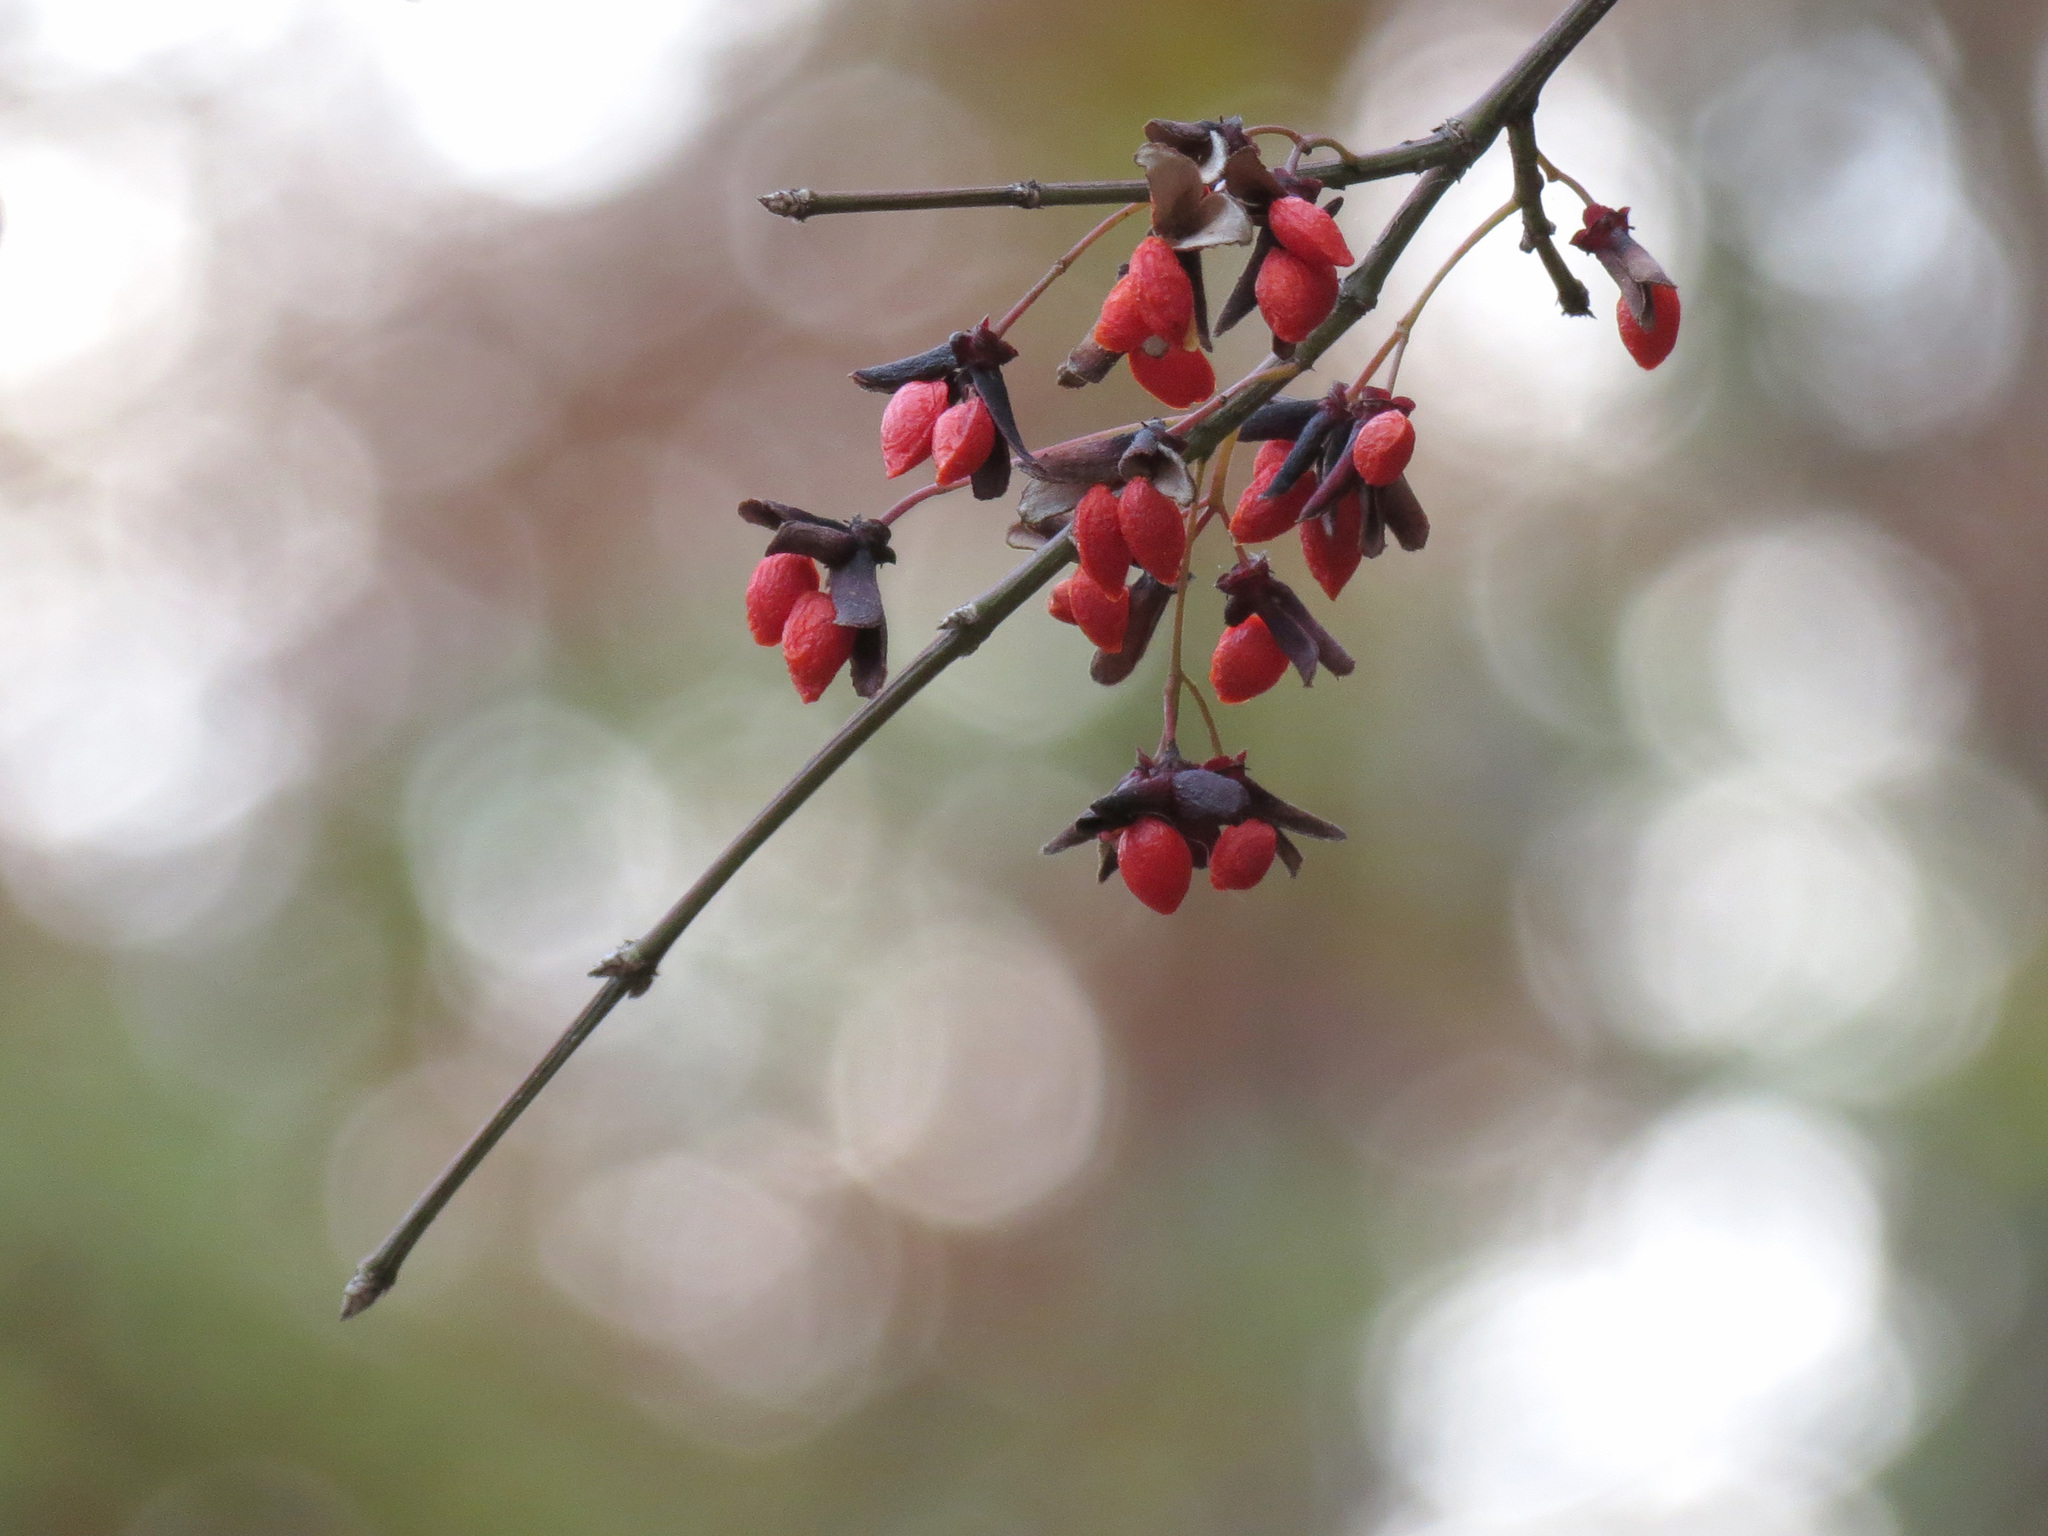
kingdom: Plantae
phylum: Tracheophyta
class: Magnoliopsida
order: Celastrales
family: Celastraceae
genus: Euonymus
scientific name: Euonymus alatus
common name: Winged euonymus
